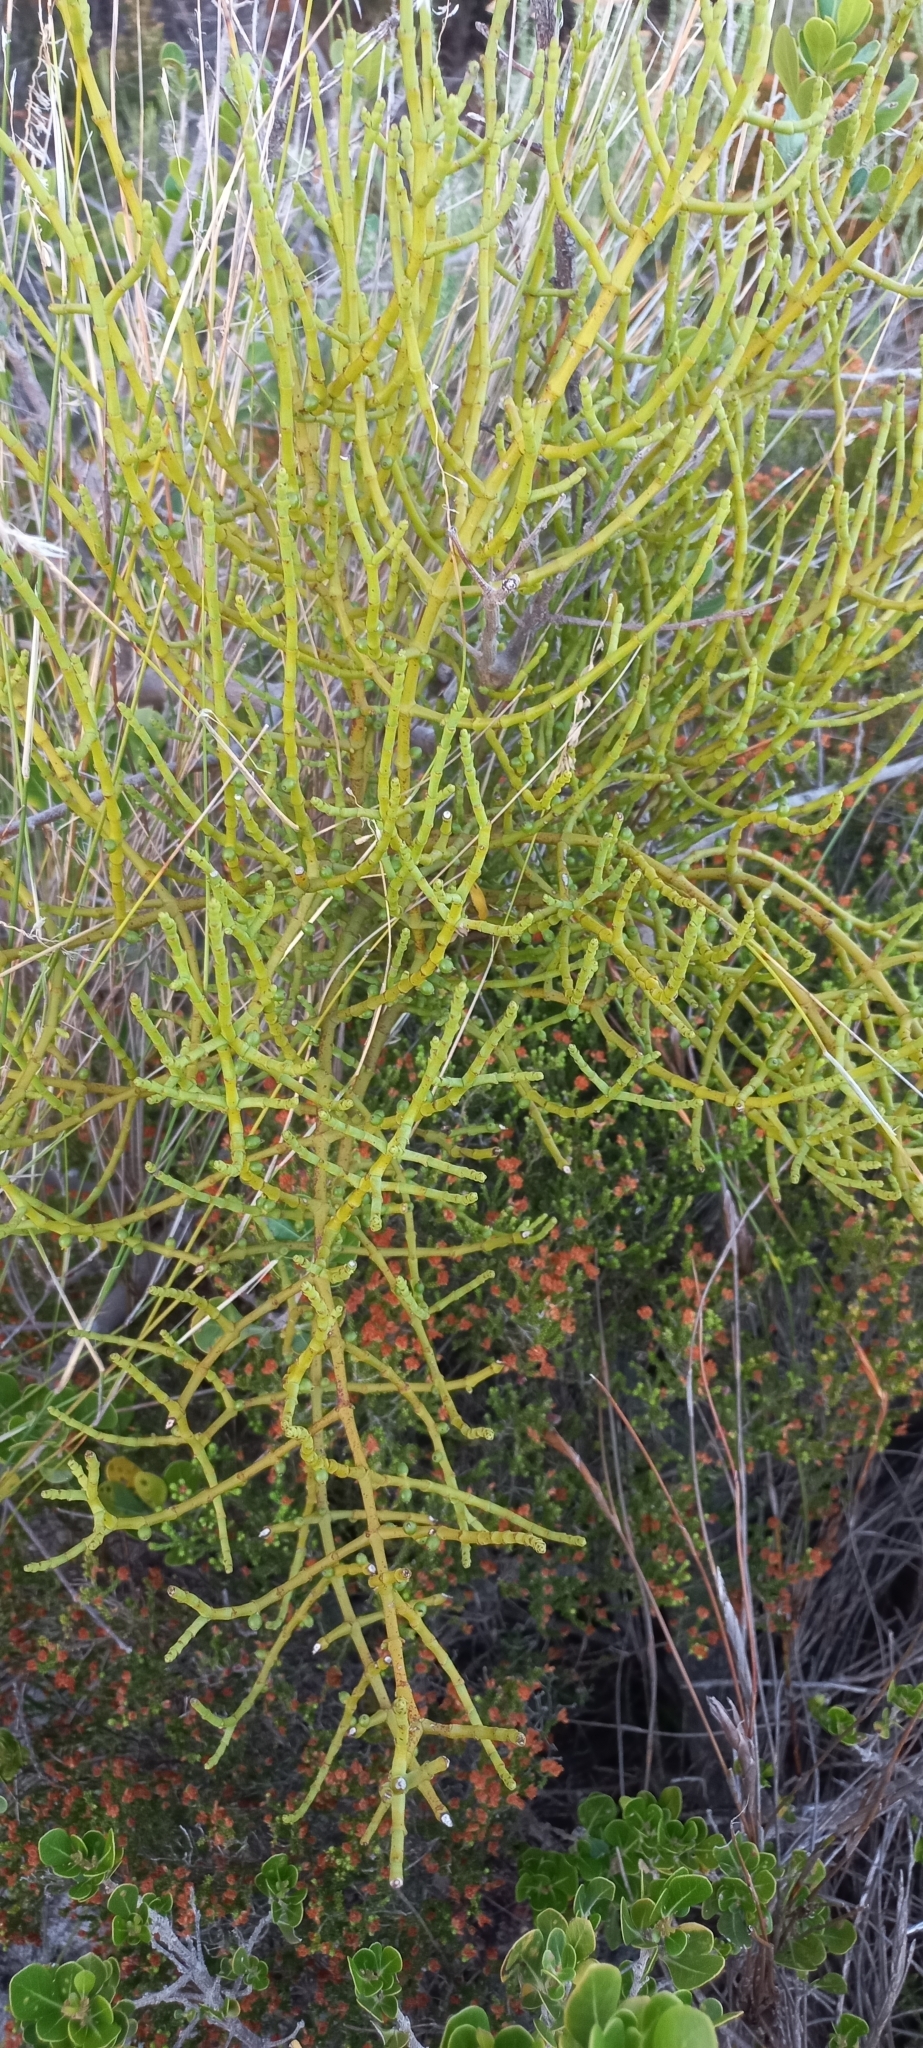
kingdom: Plantae
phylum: Tracheophyta
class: Magnoliopsida
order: Santalales
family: Viscaceae
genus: Viscum
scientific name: Viscum capense
